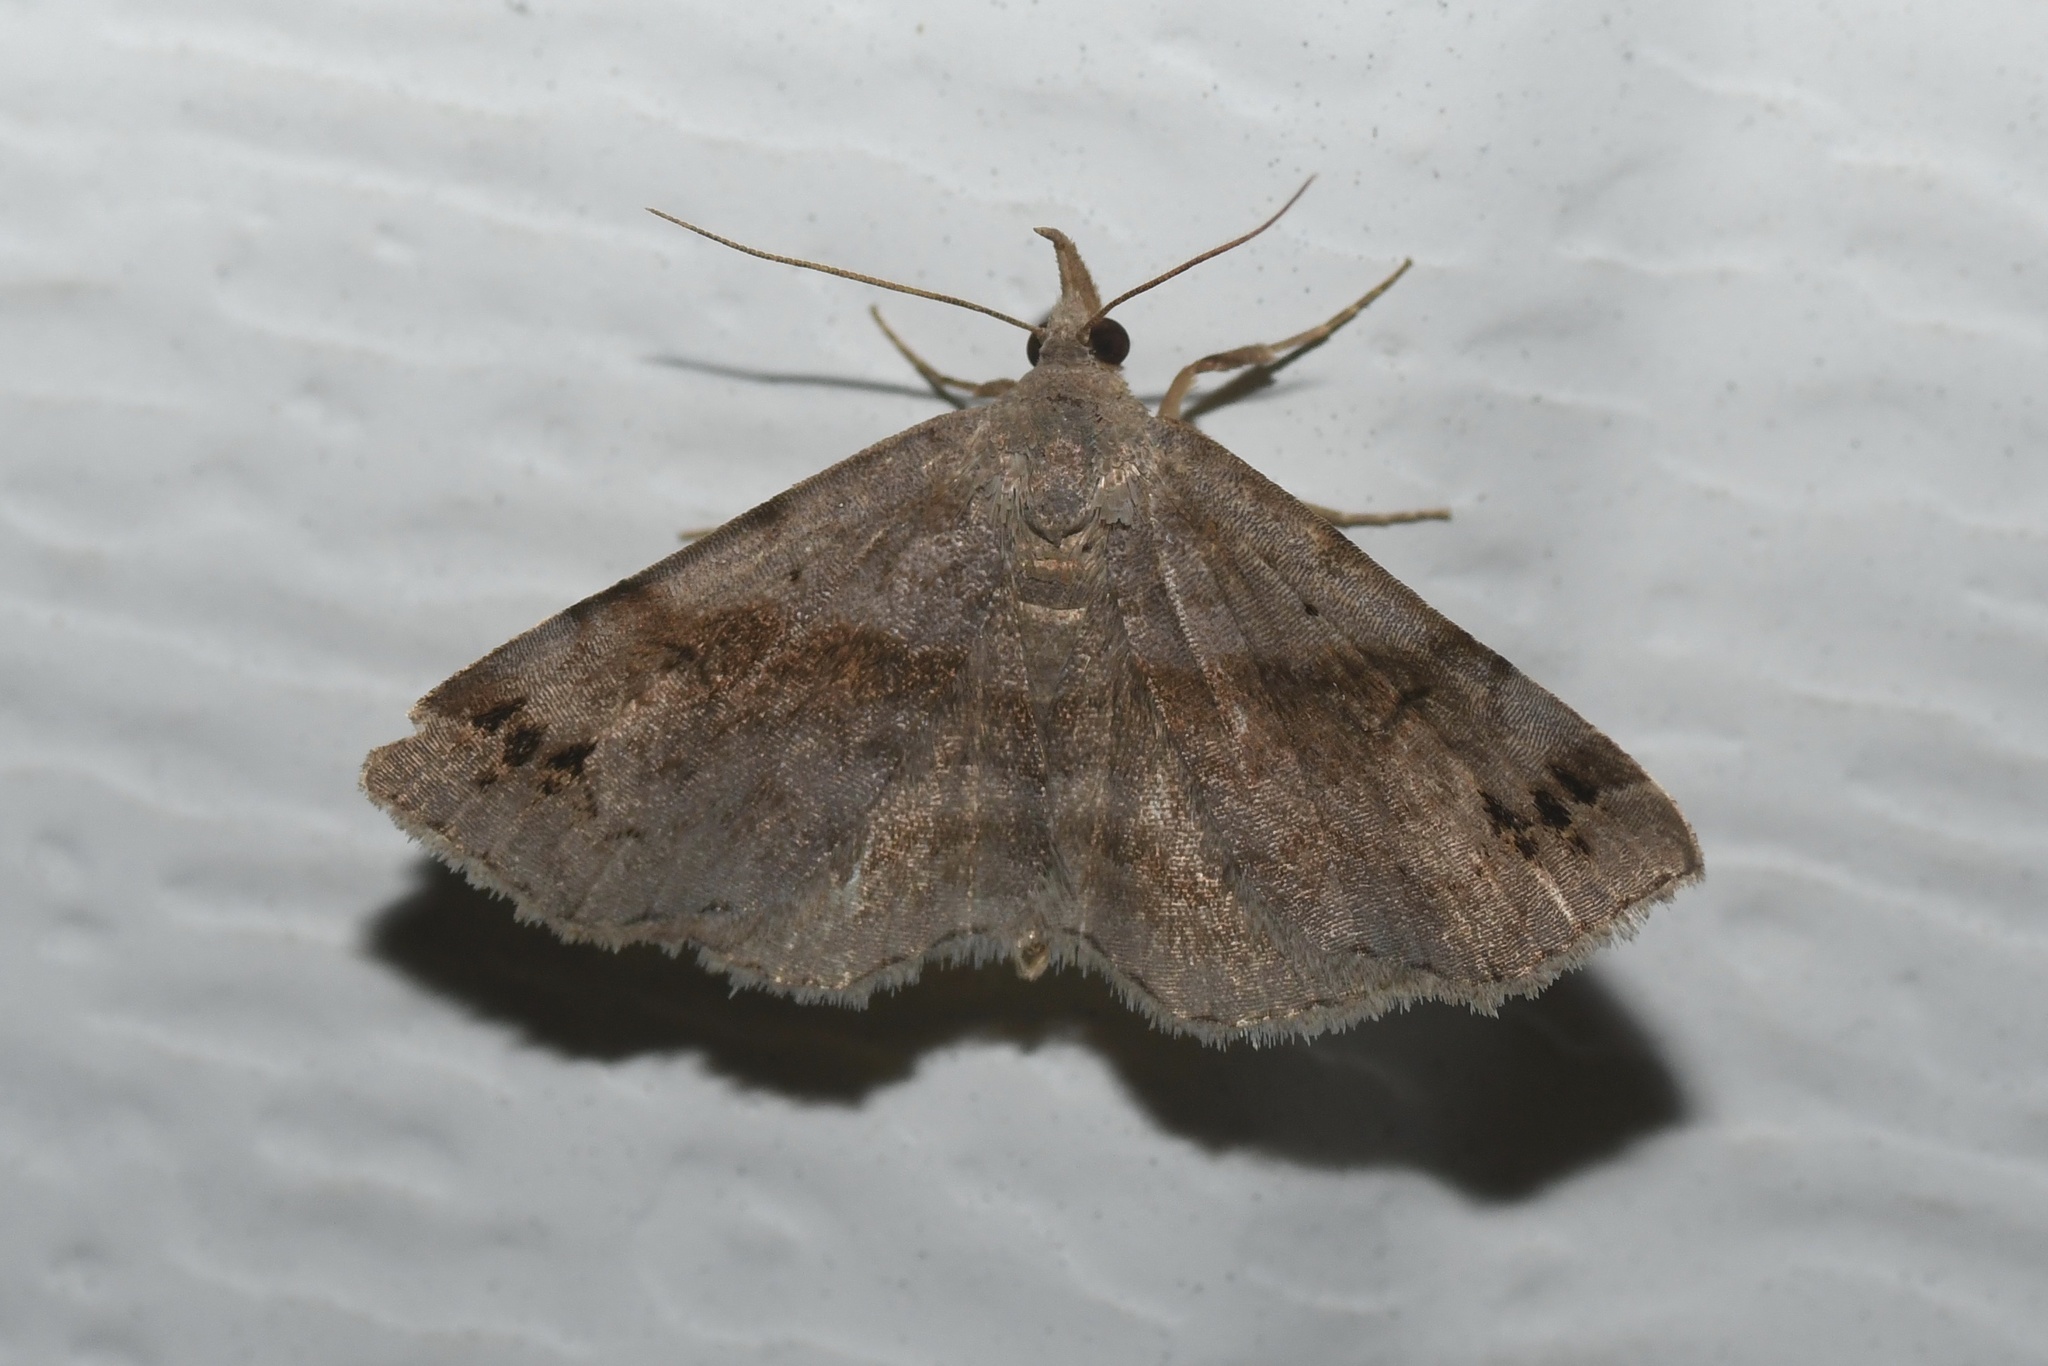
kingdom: Animalia
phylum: Arthropoda
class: Insecta
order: Lepidoptera
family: Erebidae
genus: Spargaloma
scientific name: Spargaloma sexpunctata
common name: Six-spotted gray
